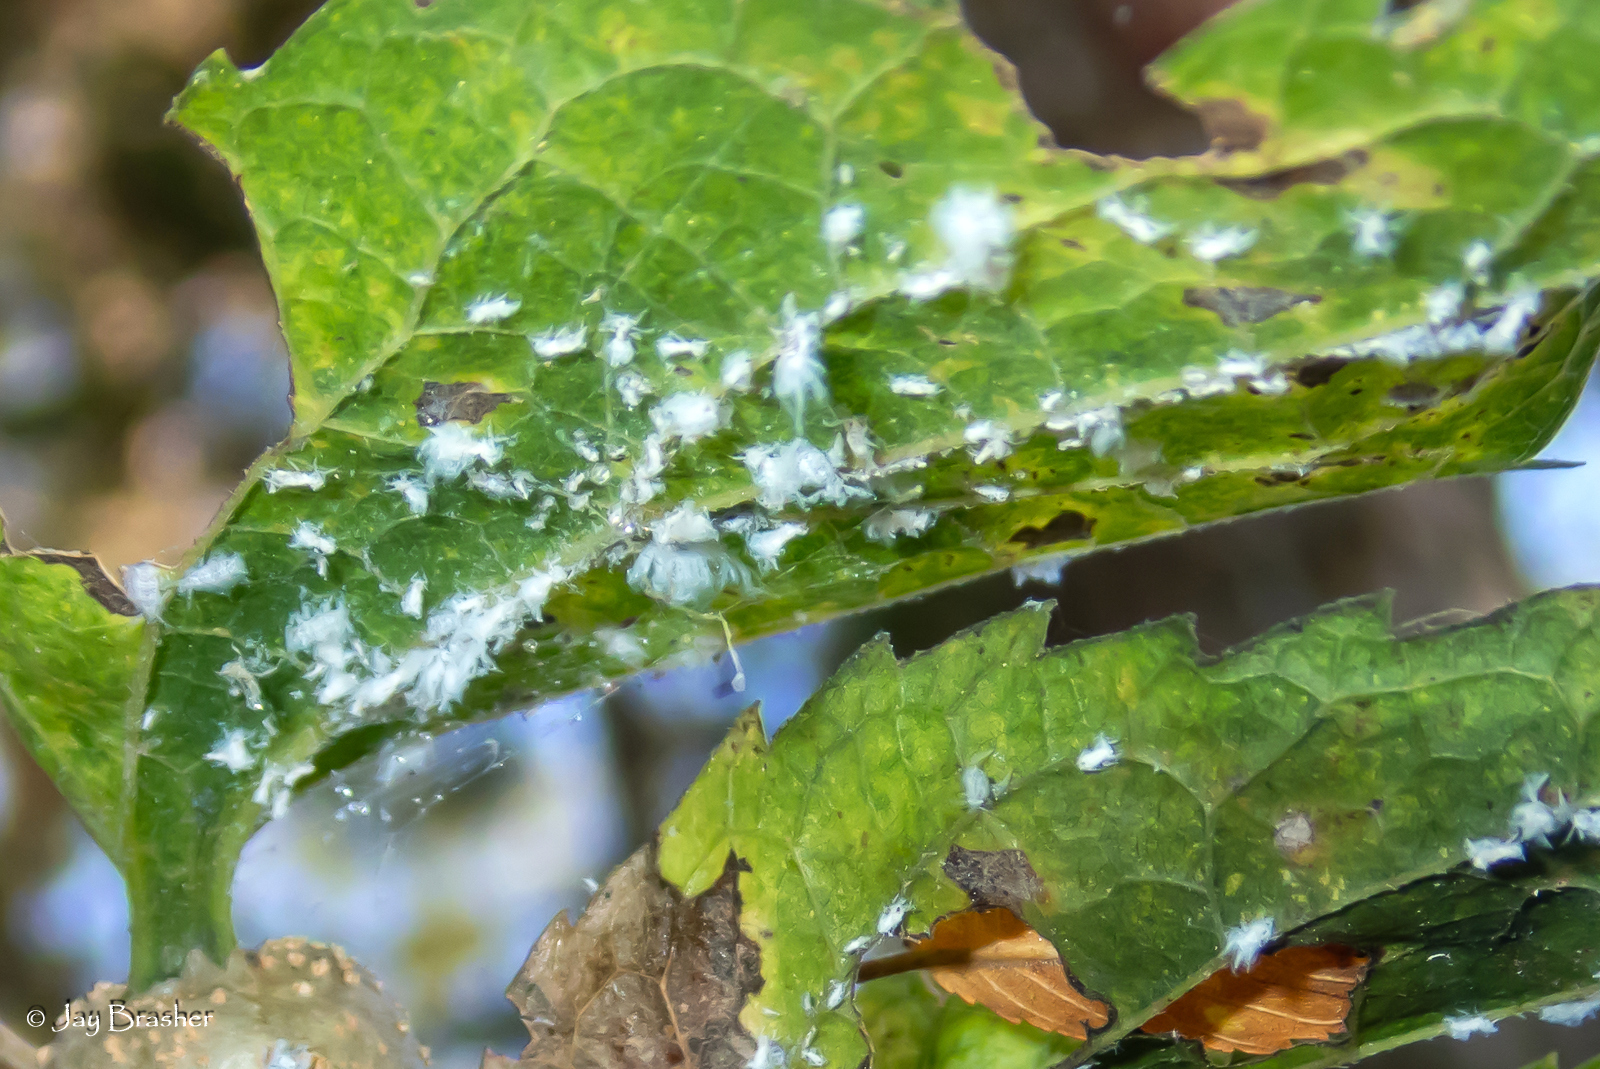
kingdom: Animalia
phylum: Arthropoda
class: Insecta
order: Hemiptera
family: Aphididae
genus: Shivaphis
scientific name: Shivaphis celti
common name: Asian wooly hackberry aphid
